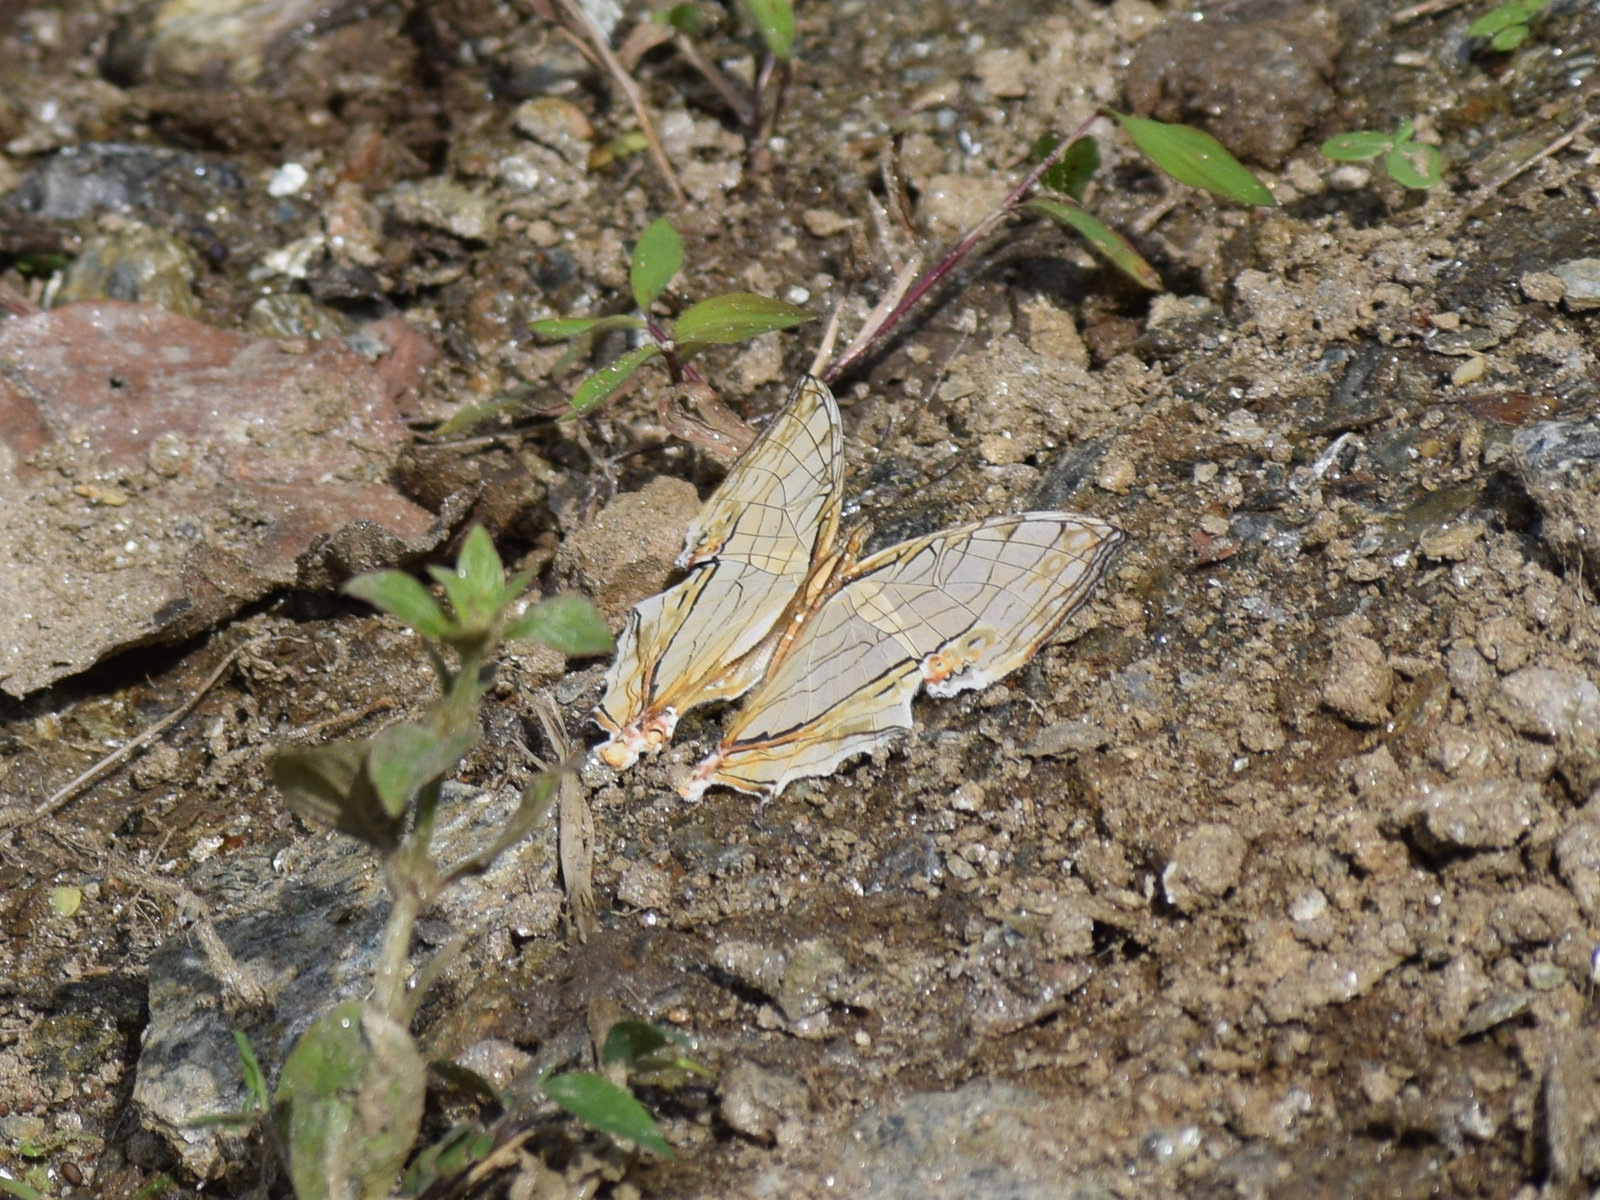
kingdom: Animalia
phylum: Arthropoda
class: Insecta
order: Lepidoptera
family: Nymphalidae
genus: Cyrestis
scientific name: Cyrestis thyodamas
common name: Common mapwing
